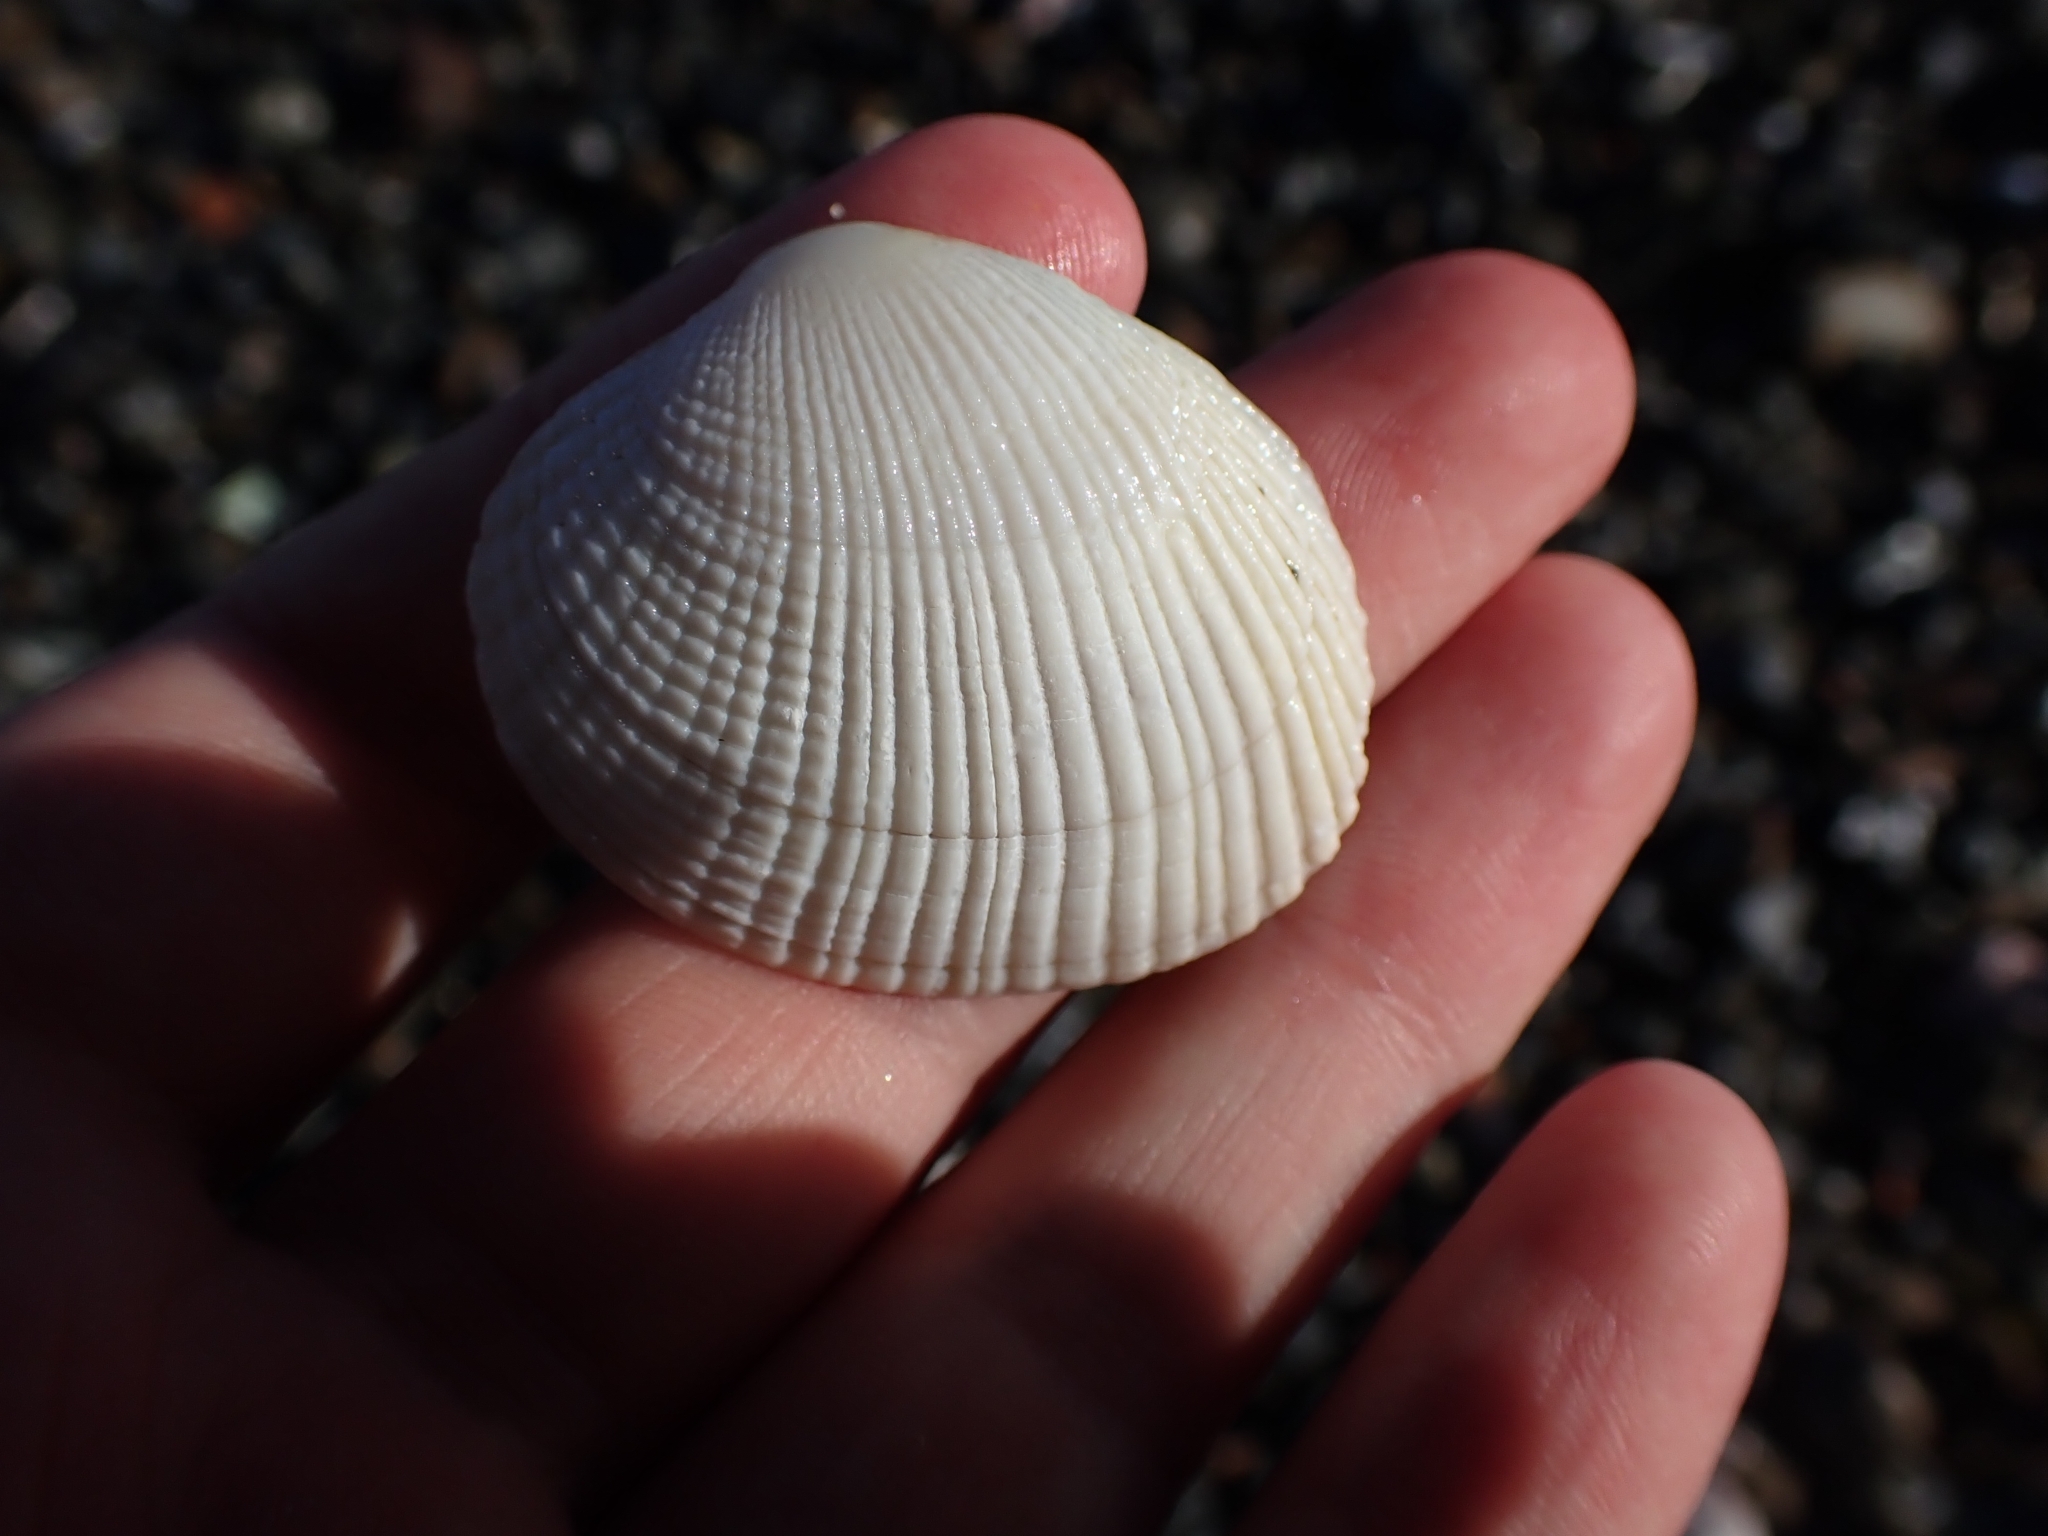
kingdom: Animalia
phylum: Mollusca
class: Bivalvia
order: Venerida
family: Veneridae
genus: Leukoma
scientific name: Leukoma crassicosta
